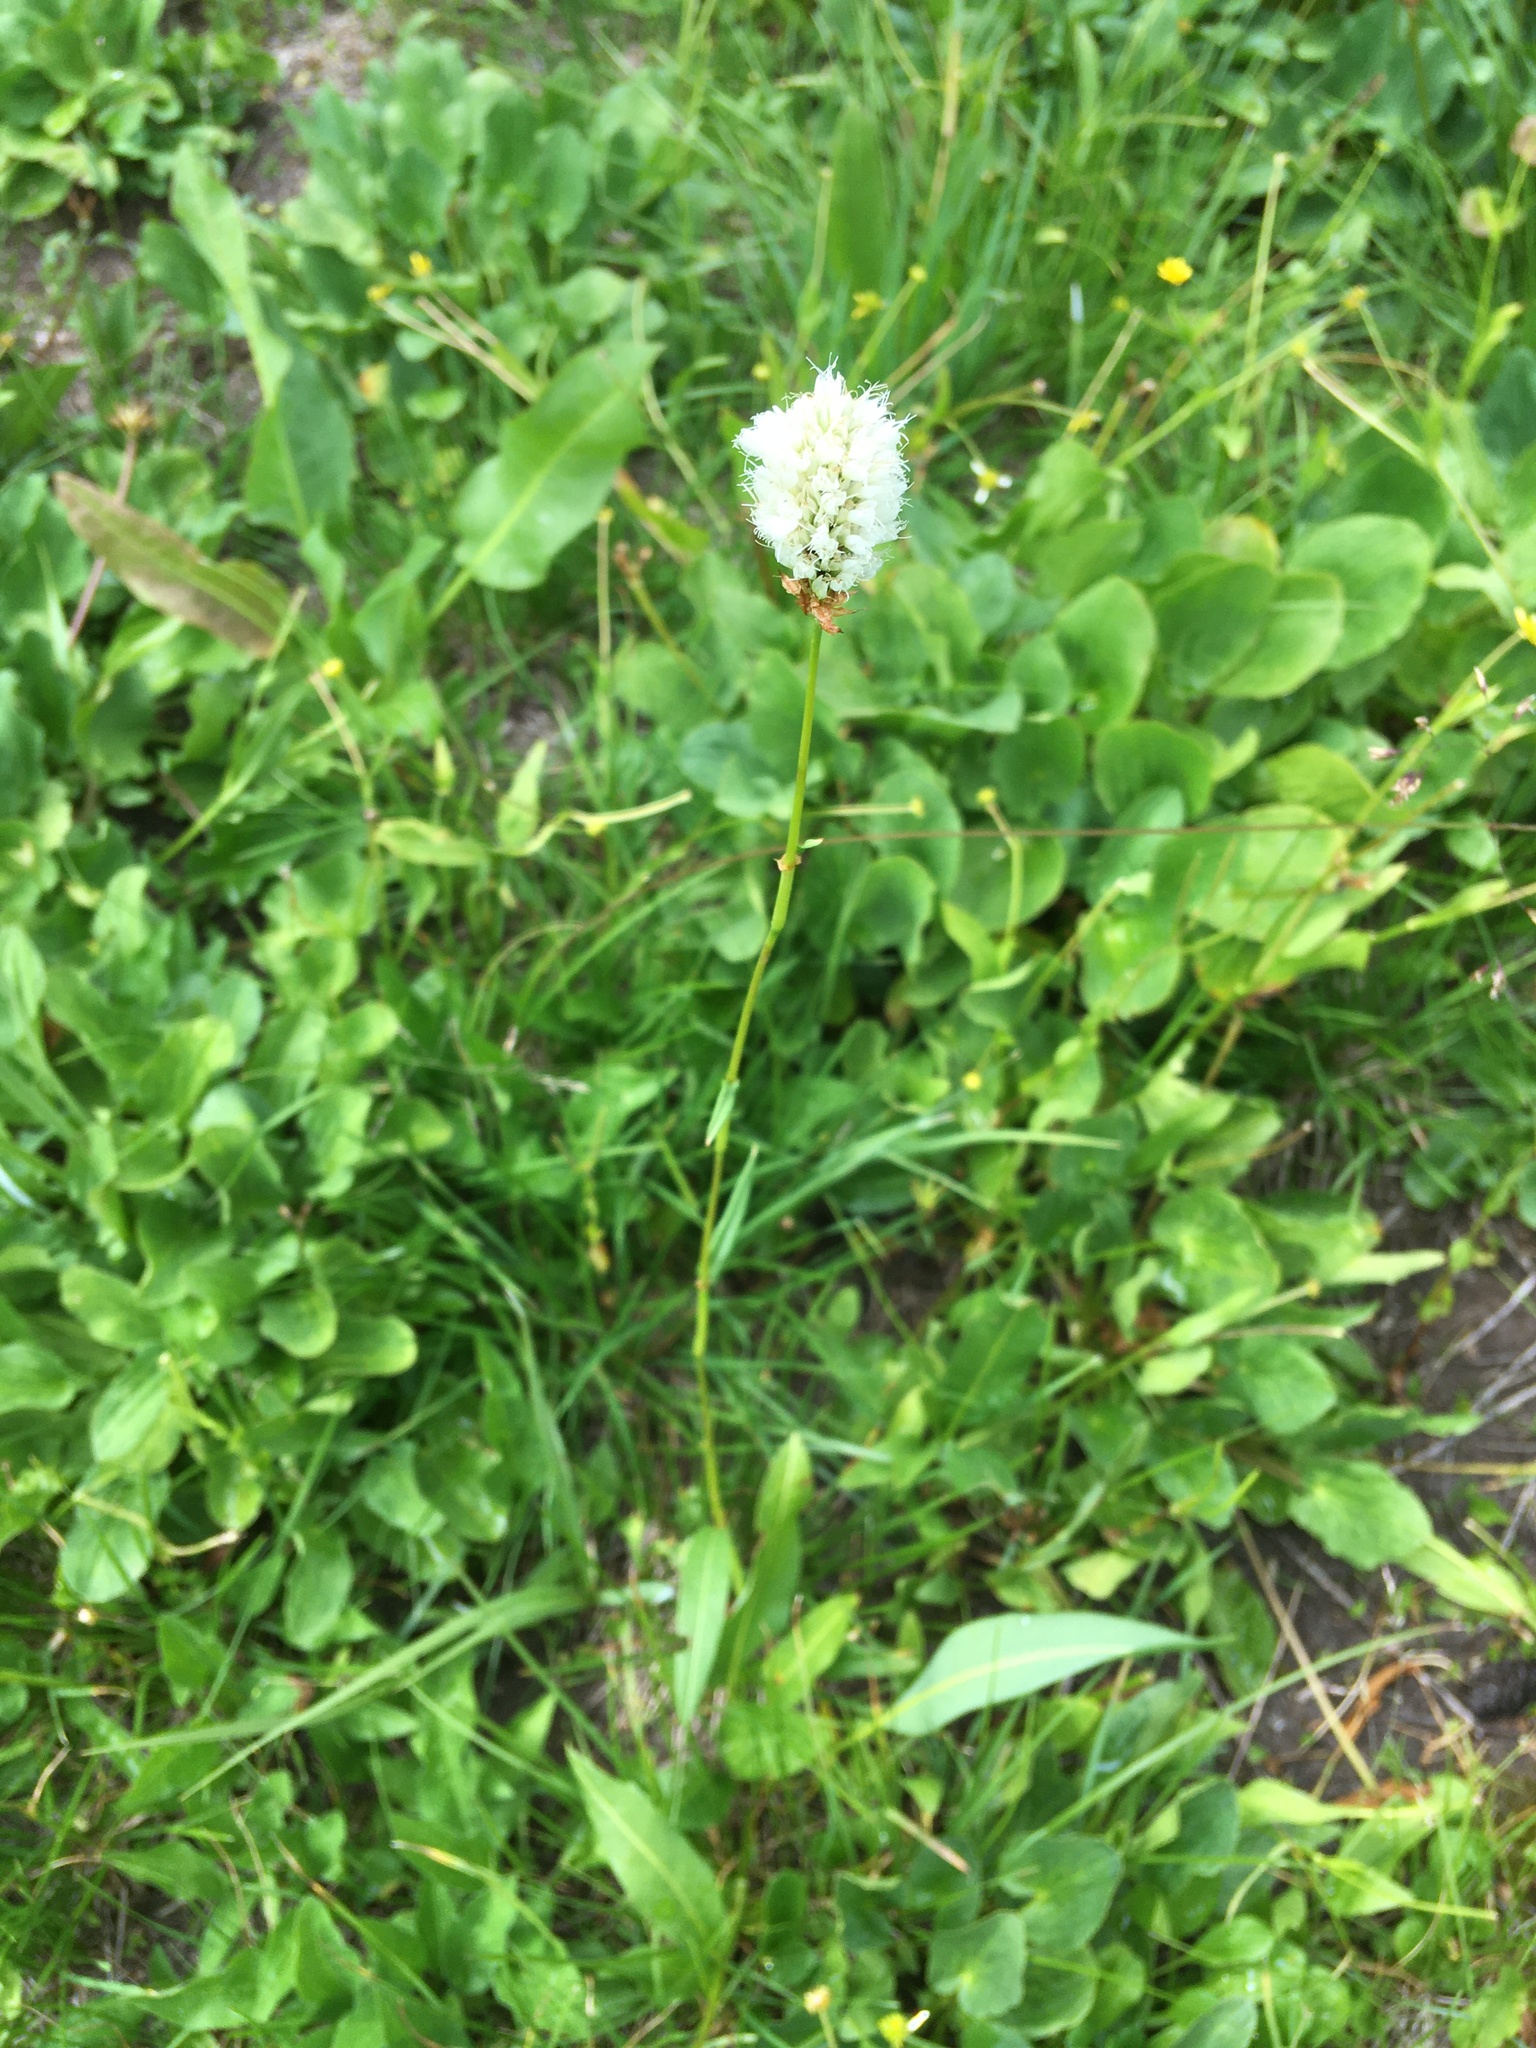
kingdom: Plantae
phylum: Tracheophyta
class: Magnoliopsida
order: Caryophyllales
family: Polygonaceae
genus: Bistorta
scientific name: Bistorta bistortoides
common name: American bistort
